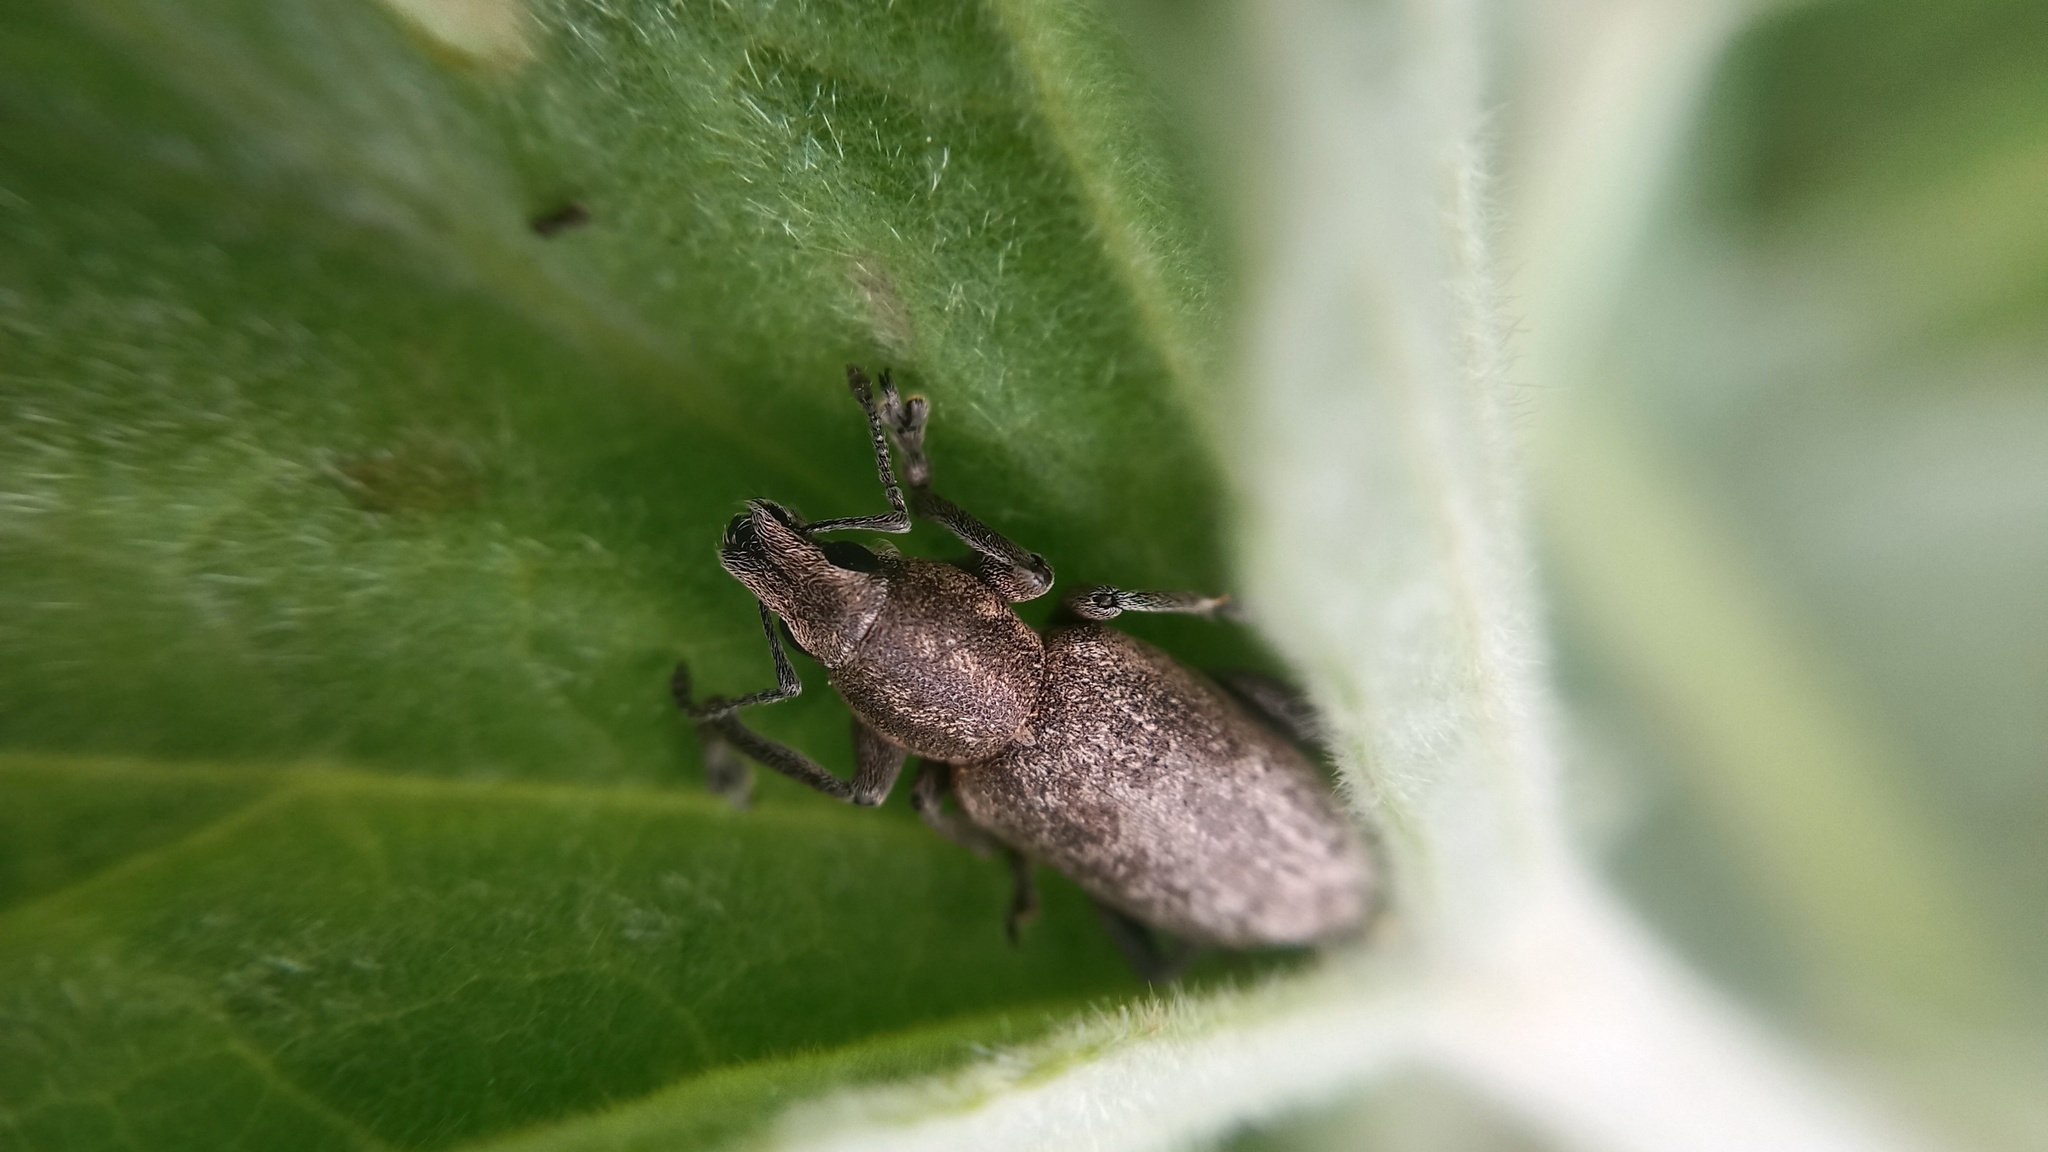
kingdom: Animalia
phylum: Arthropoda
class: Insecta
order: Coleoptera
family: Curculionidae
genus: Tanymecus
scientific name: Tanymecus palliatus
